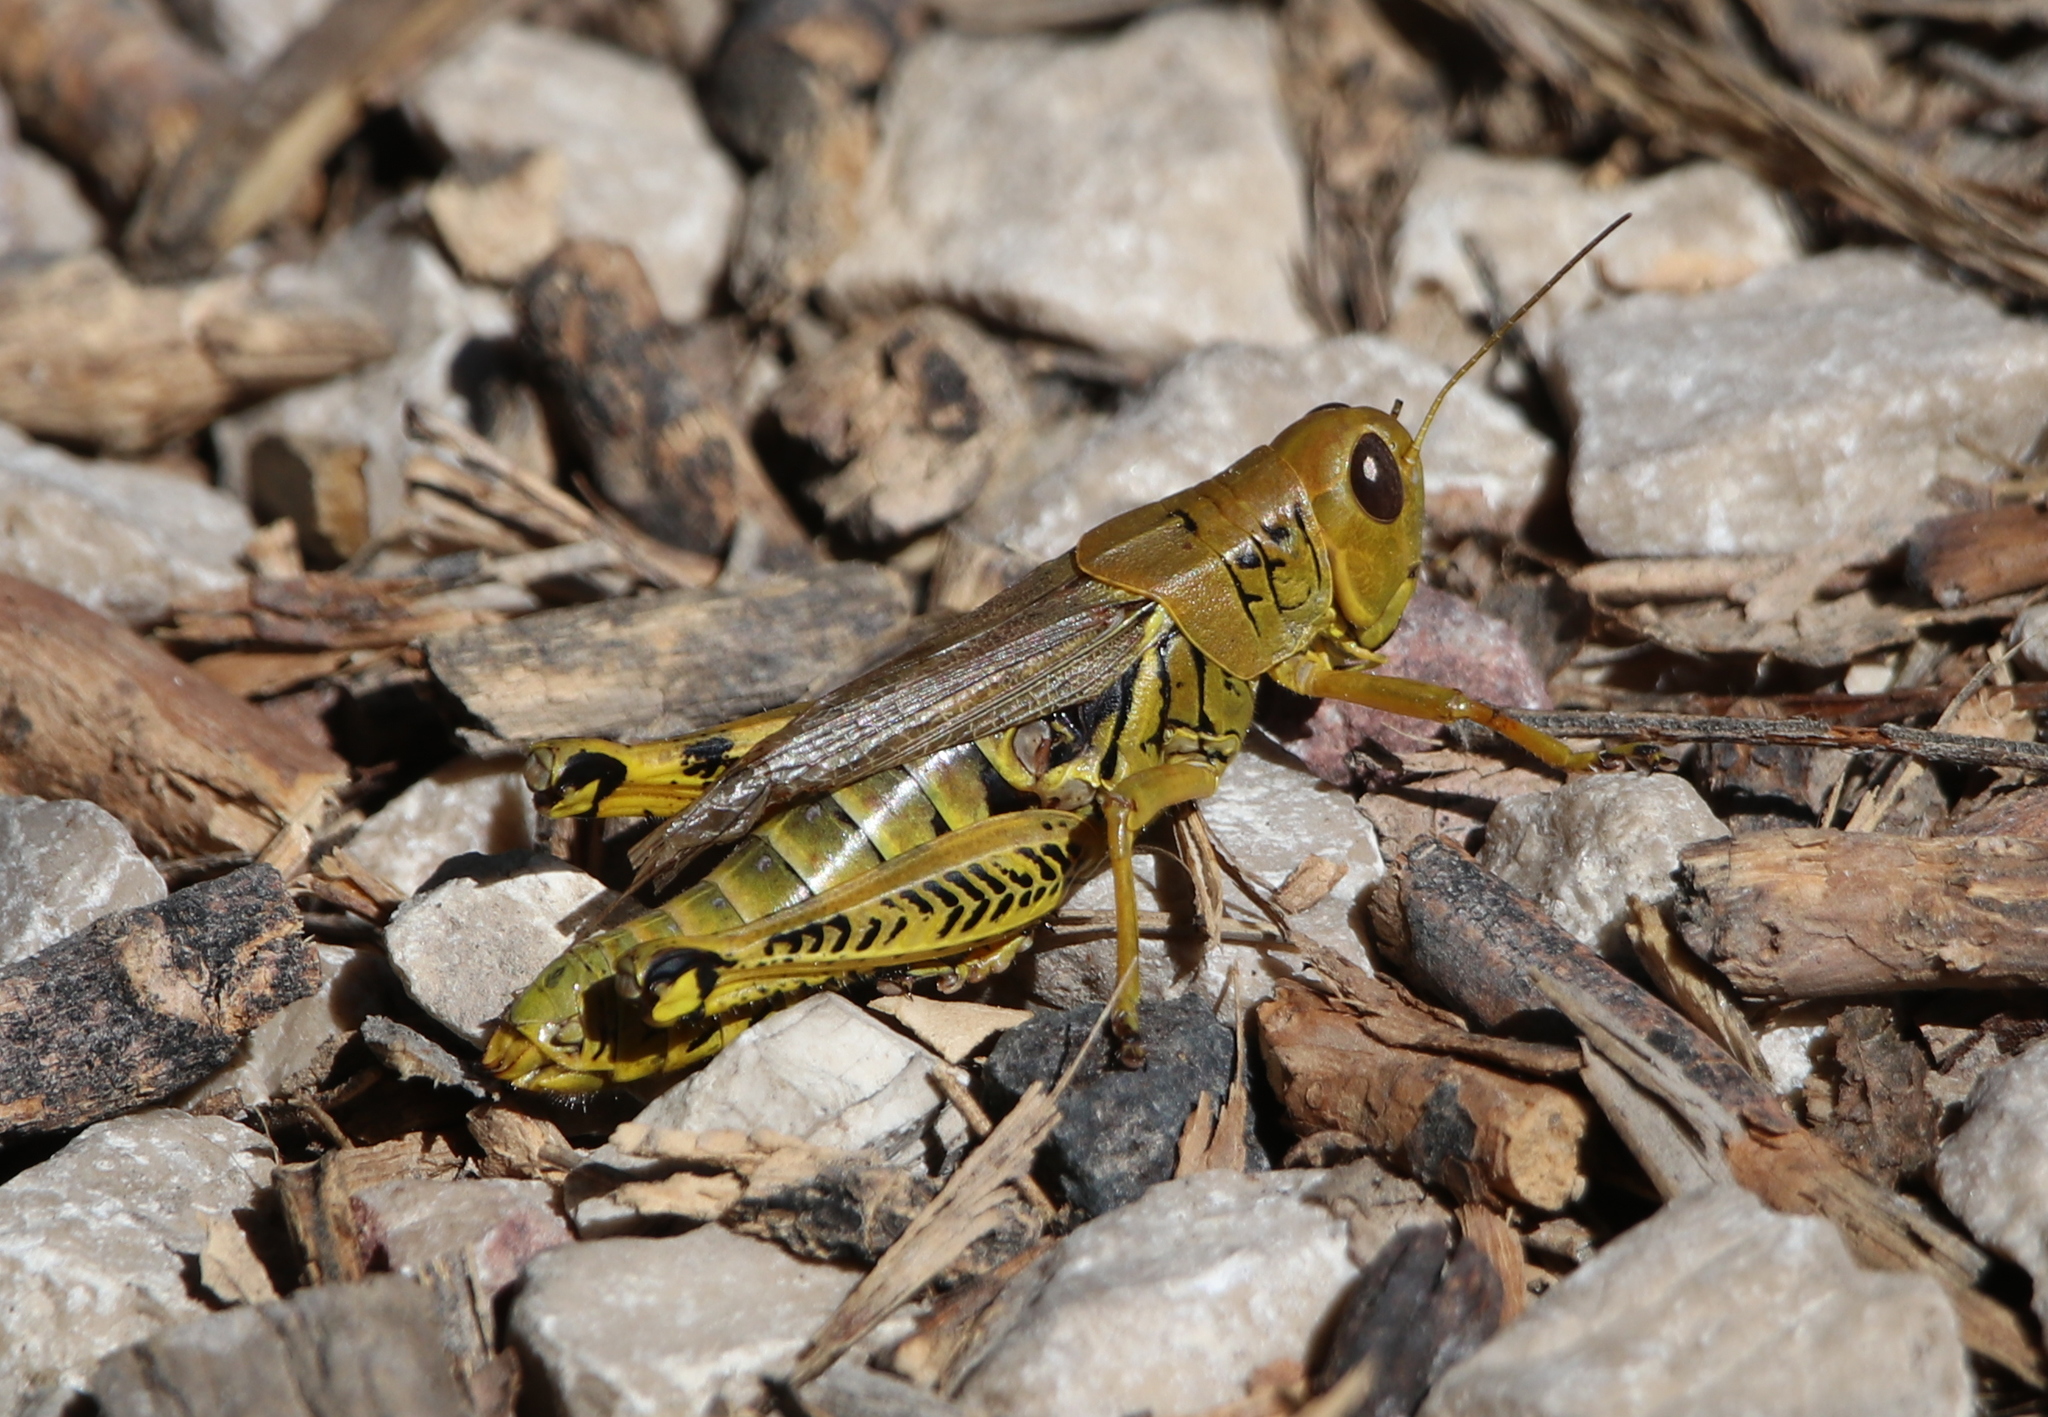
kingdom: Animalia
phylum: Arthropoda
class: Insecta
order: Orthoptera
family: Acrididae
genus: Melanoplus
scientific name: Melanoplus differentialis
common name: Differential grasshopper
